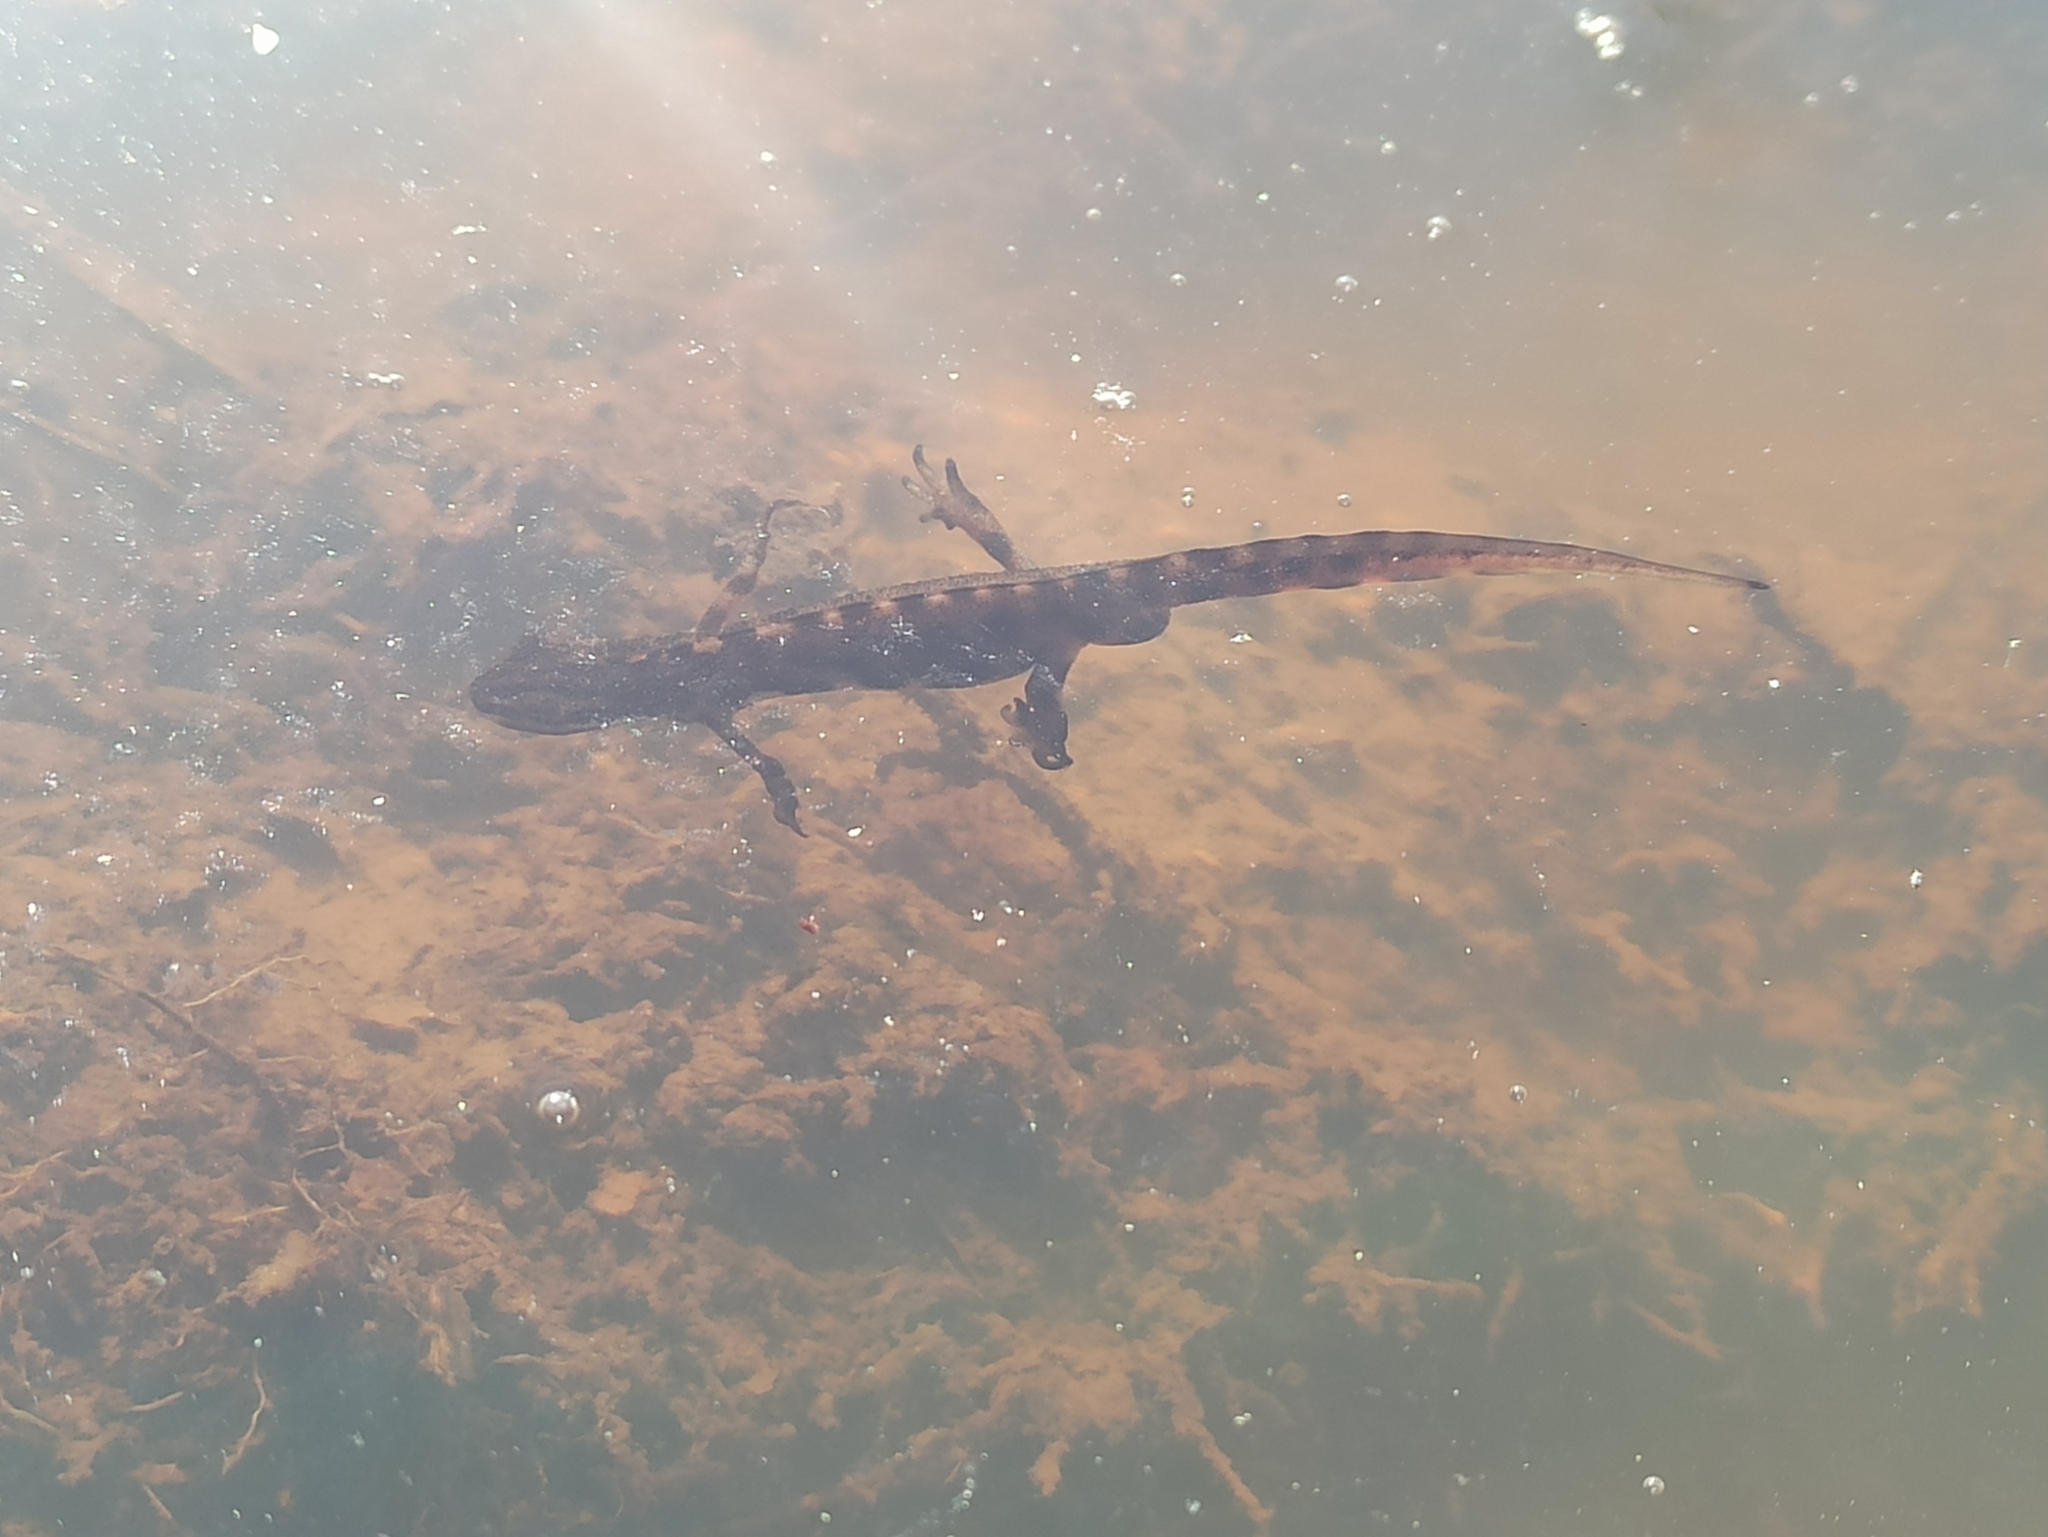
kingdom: Animalia
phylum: Chordata
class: Amphibia
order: Caudata
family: Salamandridae
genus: Lissotriton
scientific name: Lissotriton vulgaris
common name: Smooth newt
